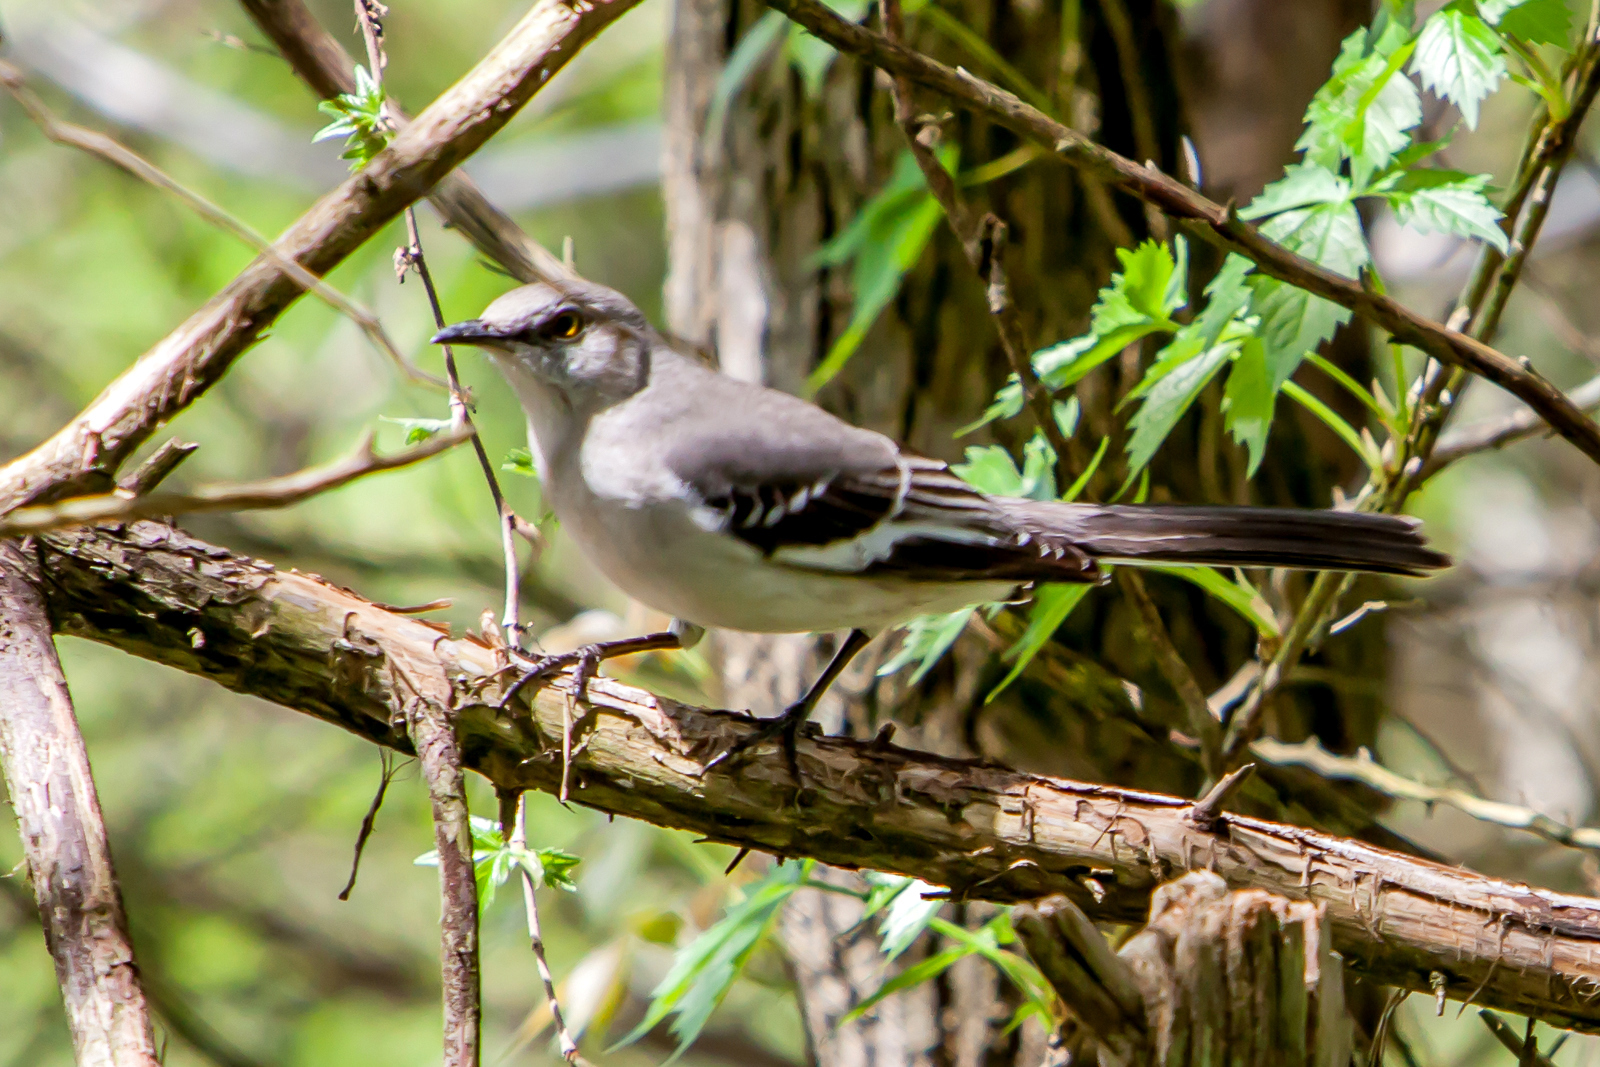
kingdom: Animalia
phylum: Chordata
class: Aves
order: Passeriformes
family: Mimidae
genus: Mimus
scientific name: Mimus polyglottos
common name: Northern mockingbird
